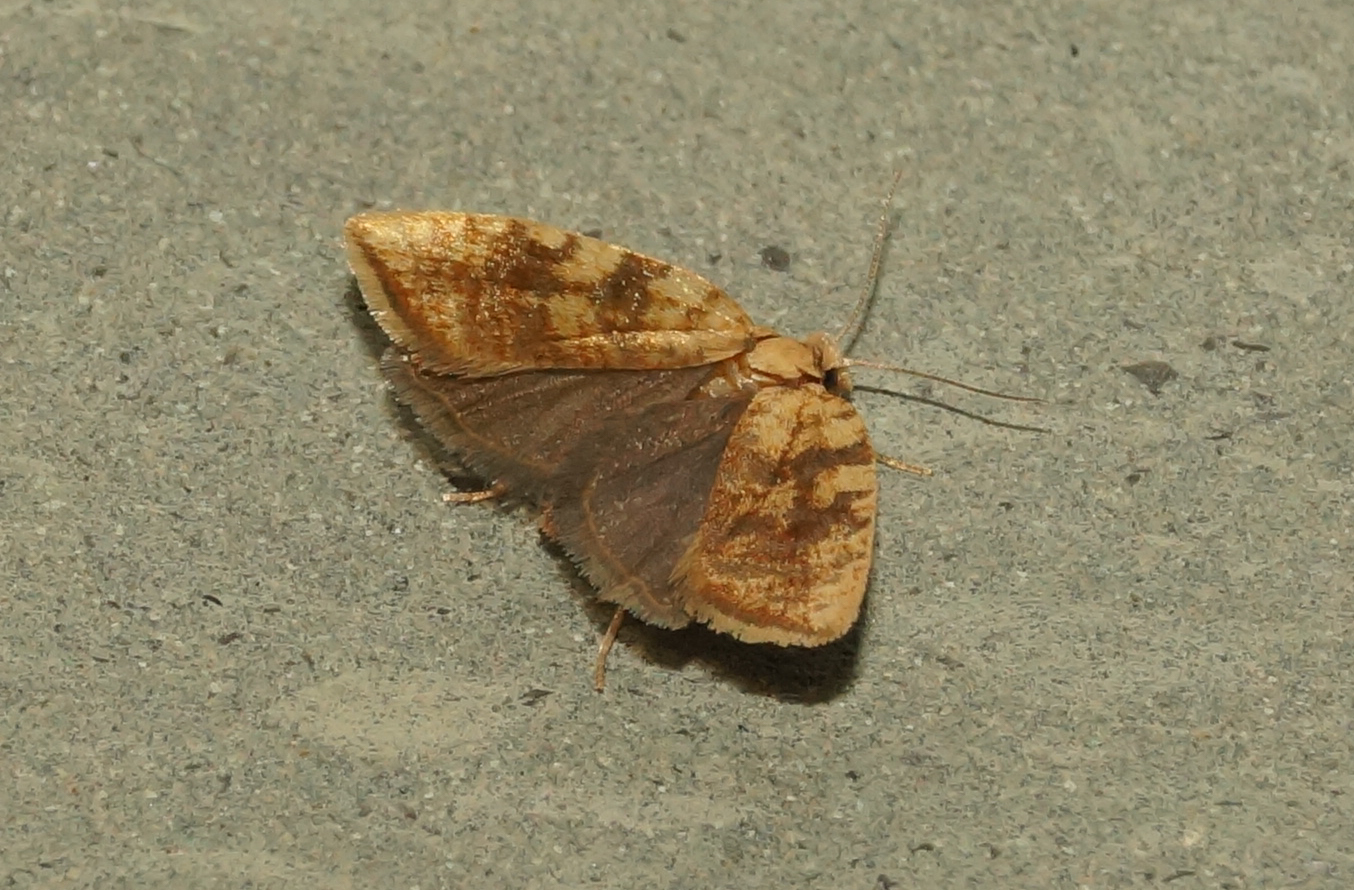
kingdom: Animalia
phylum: Arthropoda
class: Insecta
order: Lepidoptera
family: Tortricidae
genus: Aleimma
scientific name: Aleimma loeflingiana
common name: Yellow oak button
